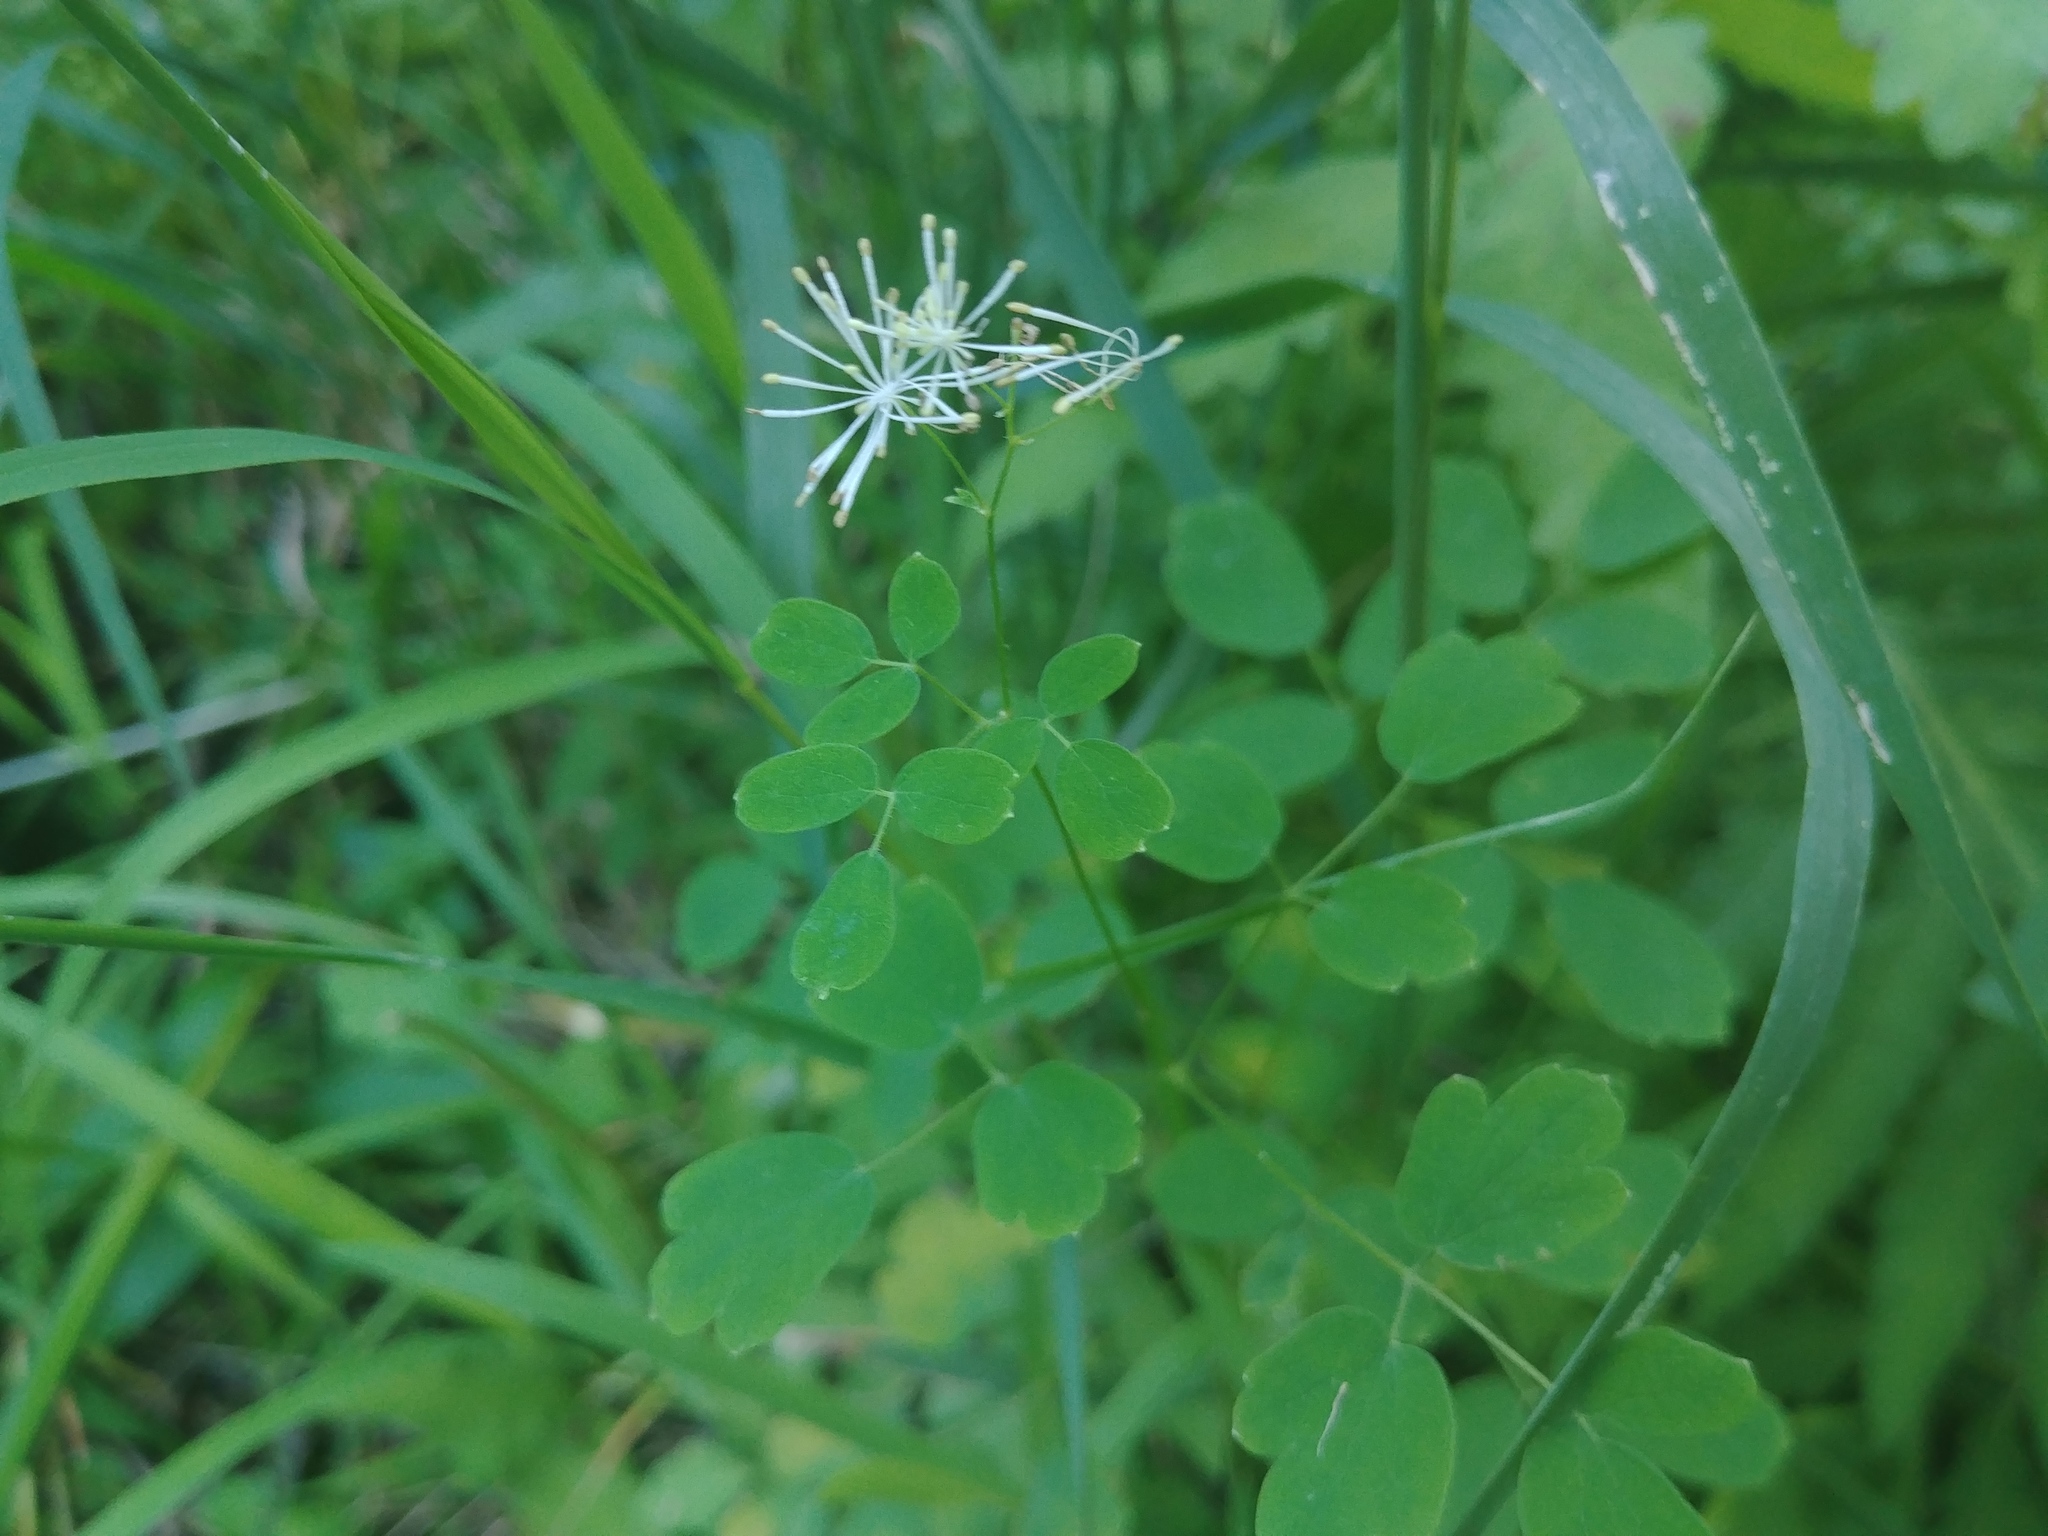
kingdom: Plantae
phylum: Tracheophyta
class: Magnoliopsida
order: Ranunculales
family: Ranunculaceae
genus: Thalictrum
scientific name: Thalictrum pubescens
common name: King-of-the-meadow
